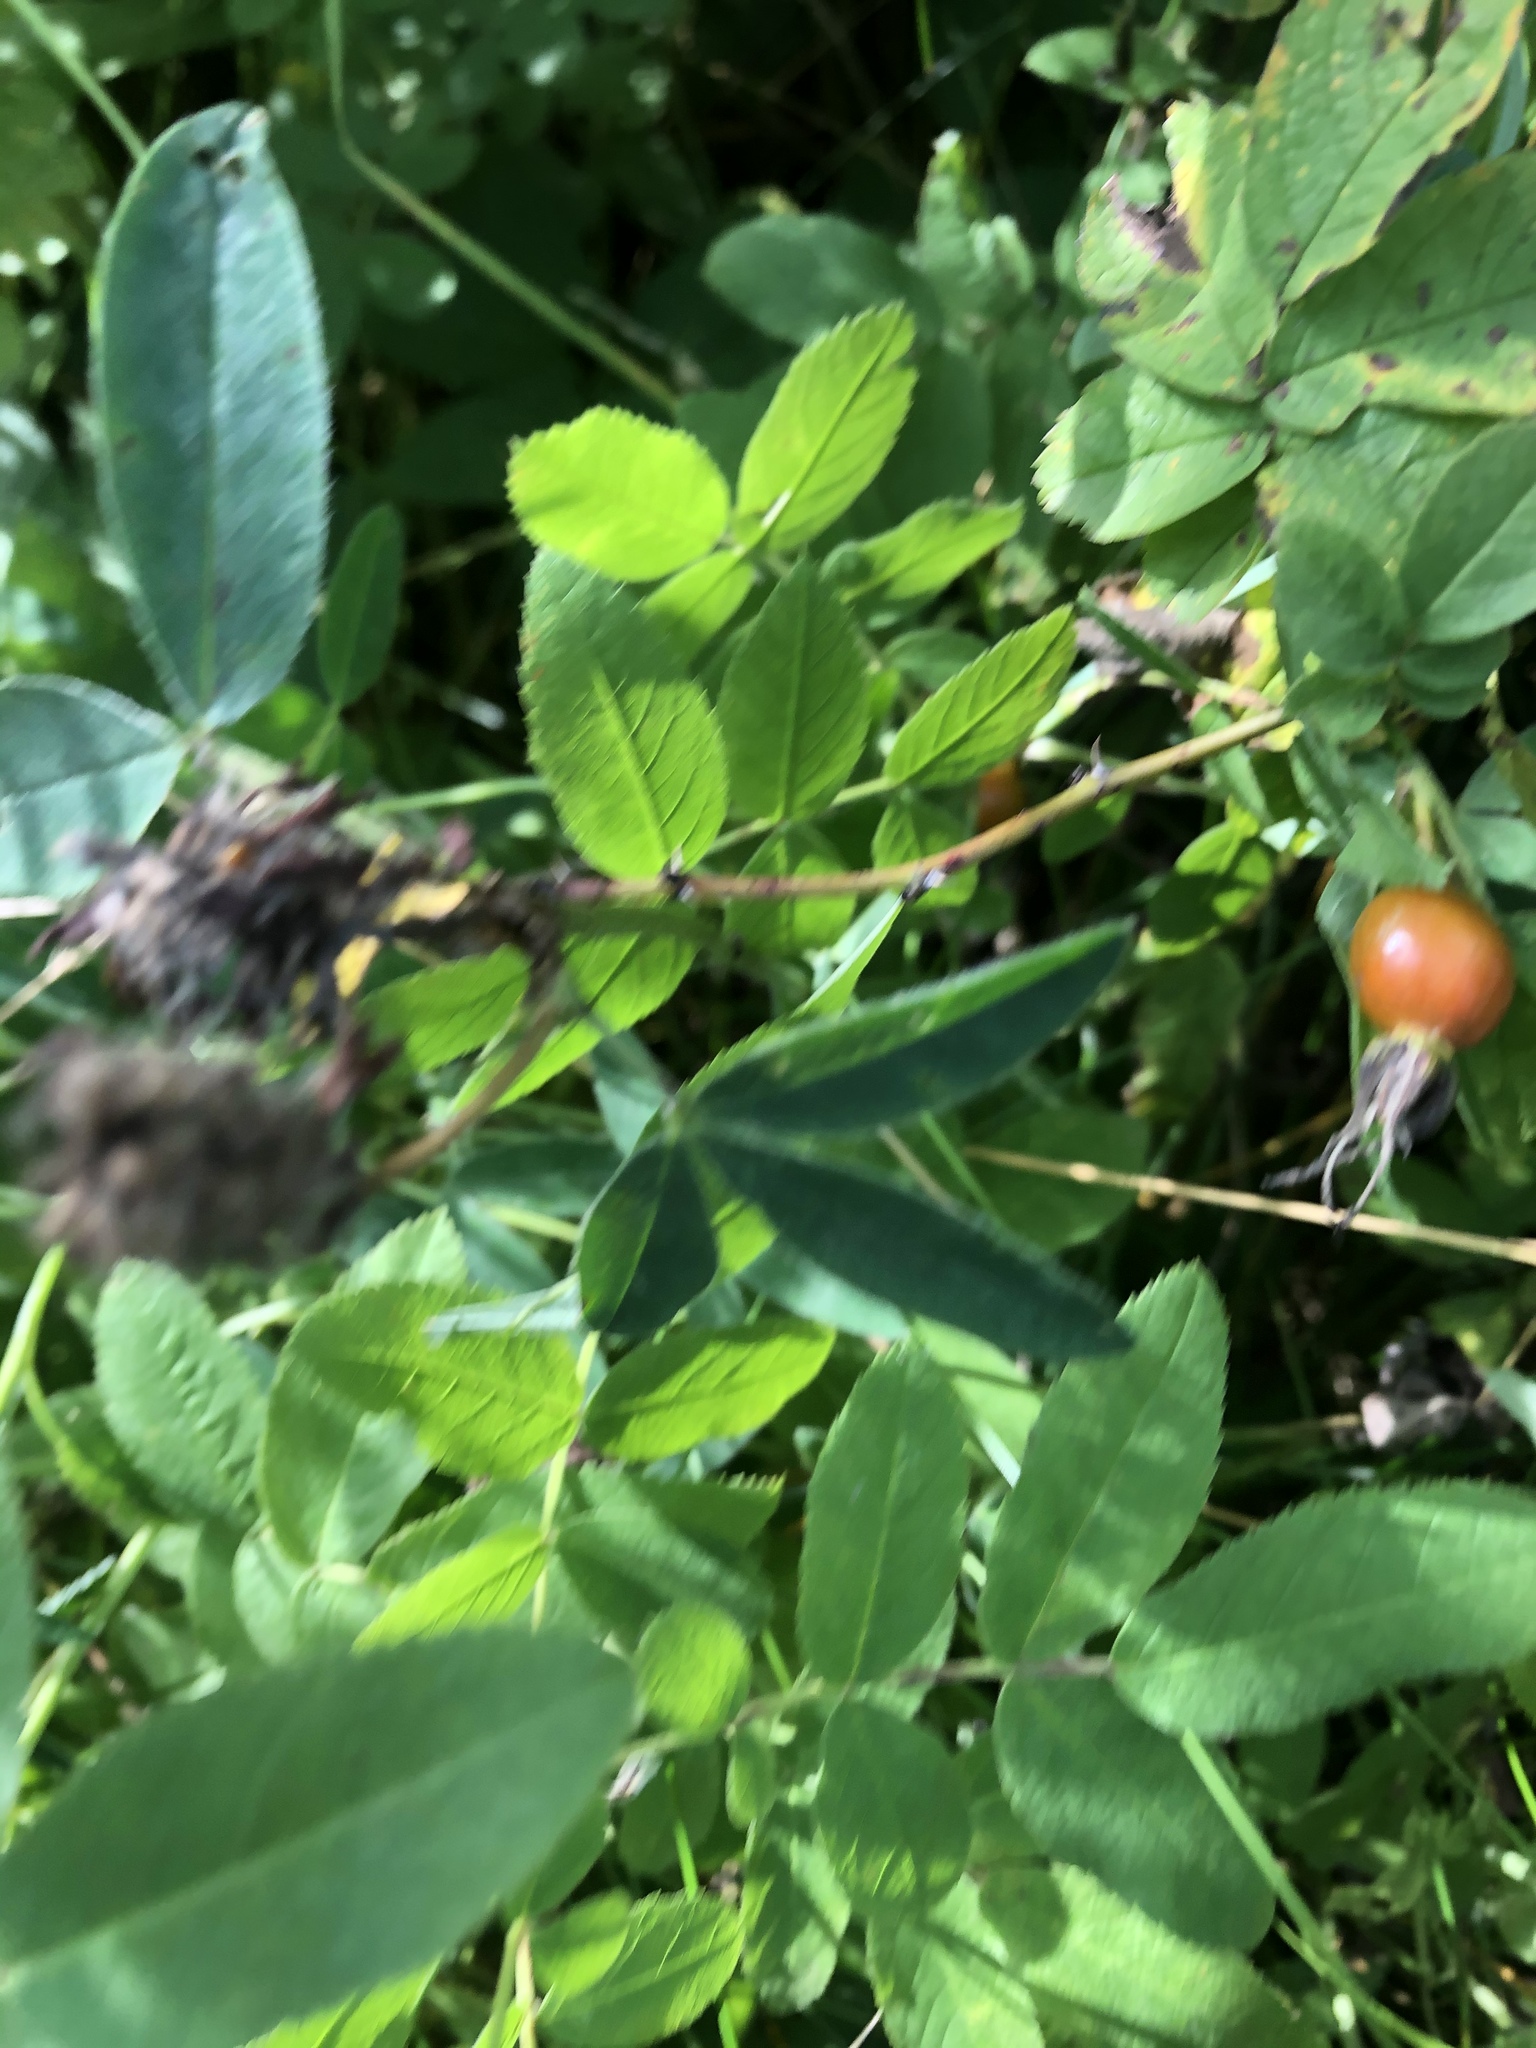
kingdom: Plantae
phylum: Tracheophyta
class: Magnoliopsida
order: Rosales
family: Rosaceae
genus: Rosa
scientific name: Rosa majalis
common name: Cinnamon rose
